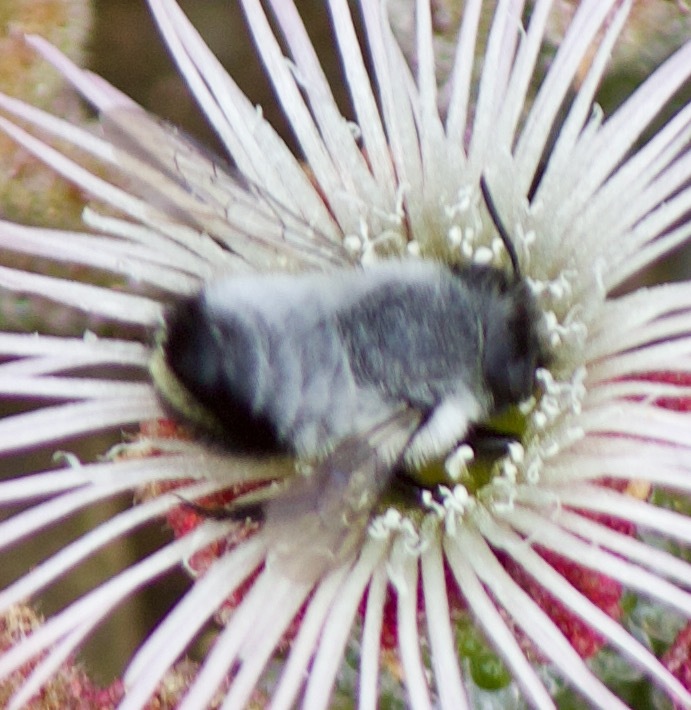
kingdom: Animalia
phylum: Arthropoda
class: Insecta
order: Hymenoptera
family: Megachilidae
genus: Megachile
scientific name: Megachile saulcyi
